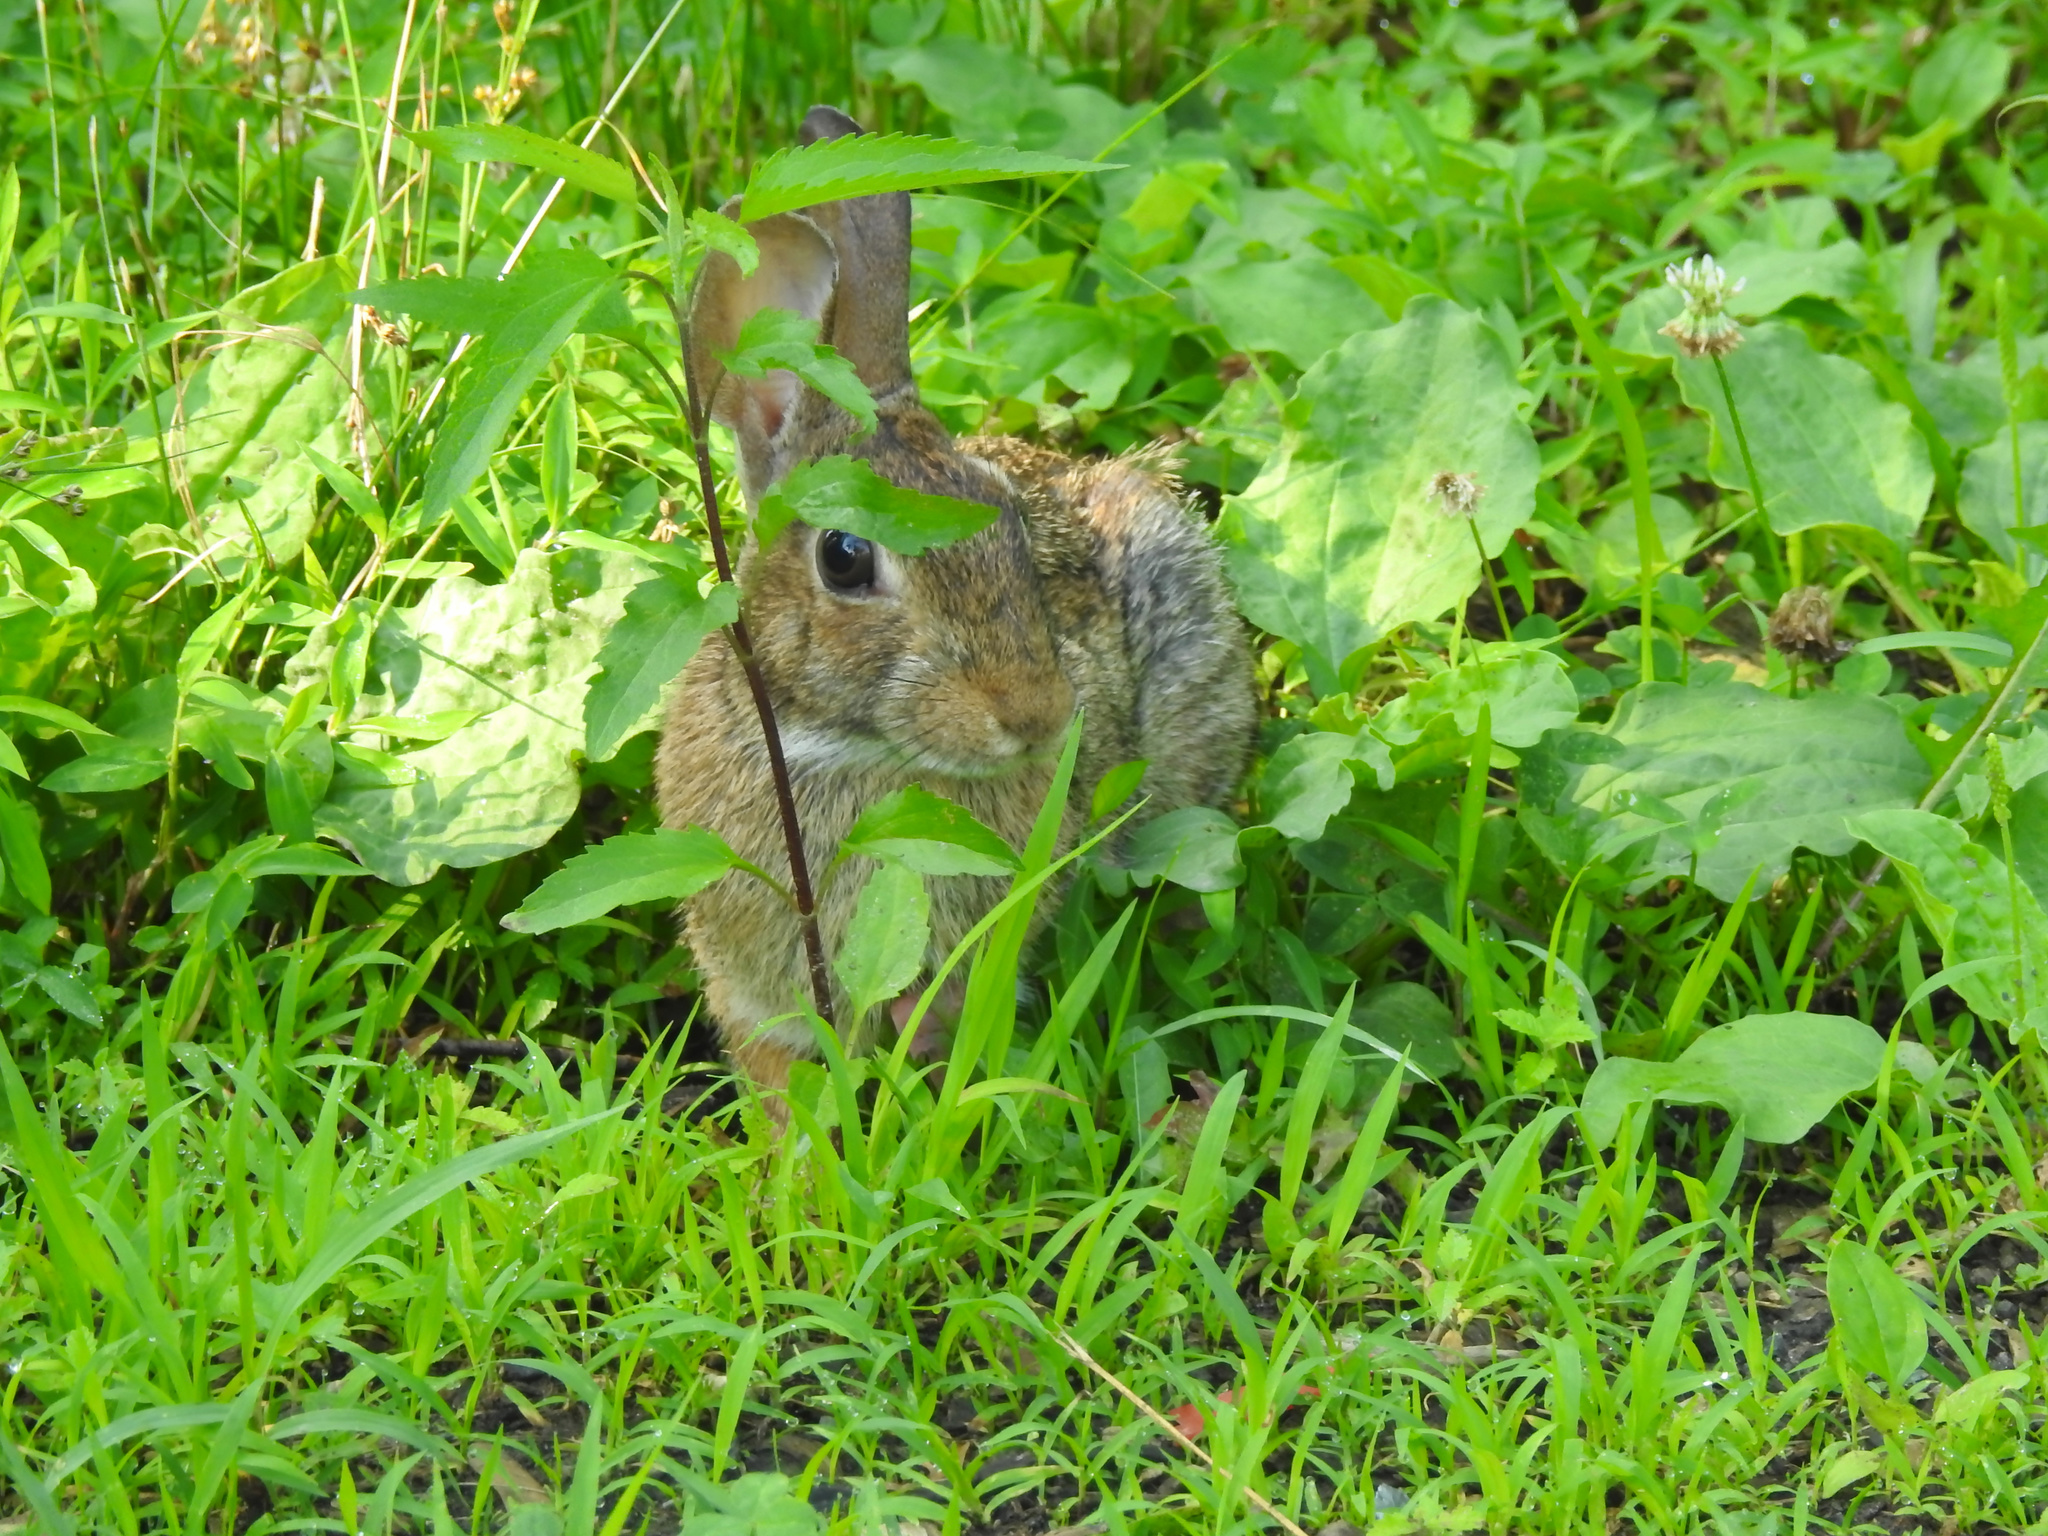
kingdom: Animalia
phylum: Chordata
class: Mammalia
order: Lagomorpha
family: Leporidae
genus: Sylvilagus
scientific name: Sylvilagus floridanus
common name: Eastern cottontail
